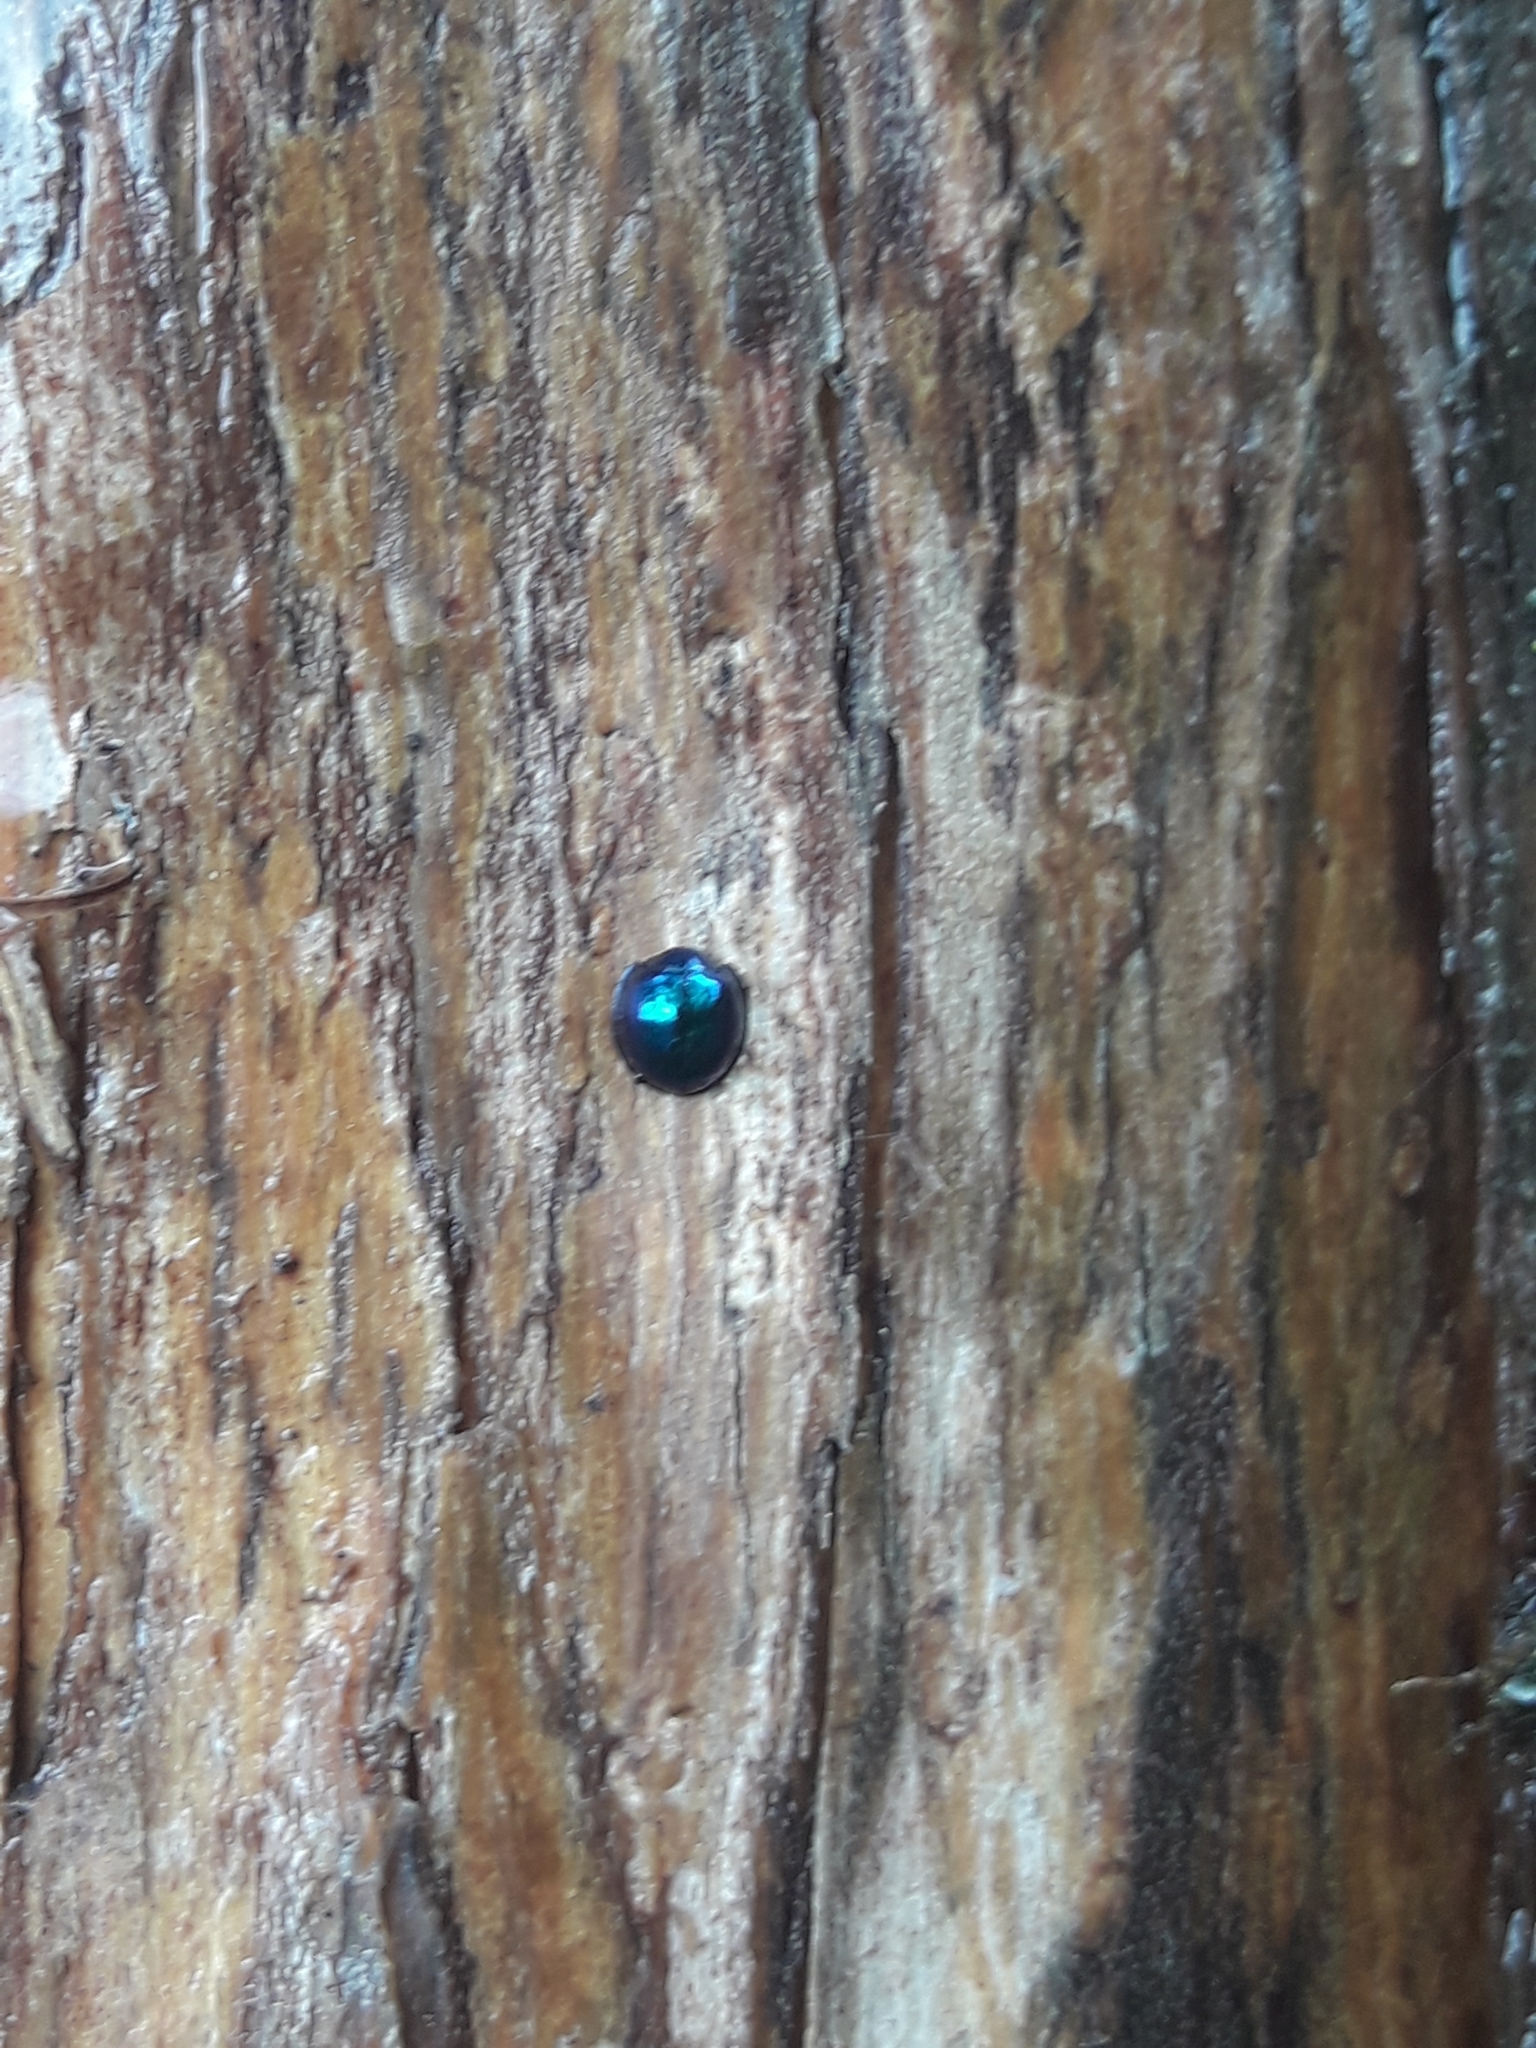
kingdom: Animalia
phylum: Arthropoda
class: Insecta
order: Coleoptera
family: Coccinellidae
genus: Halmus
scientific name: Halmus chalybeus
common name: Steel blue ladybird beetle
